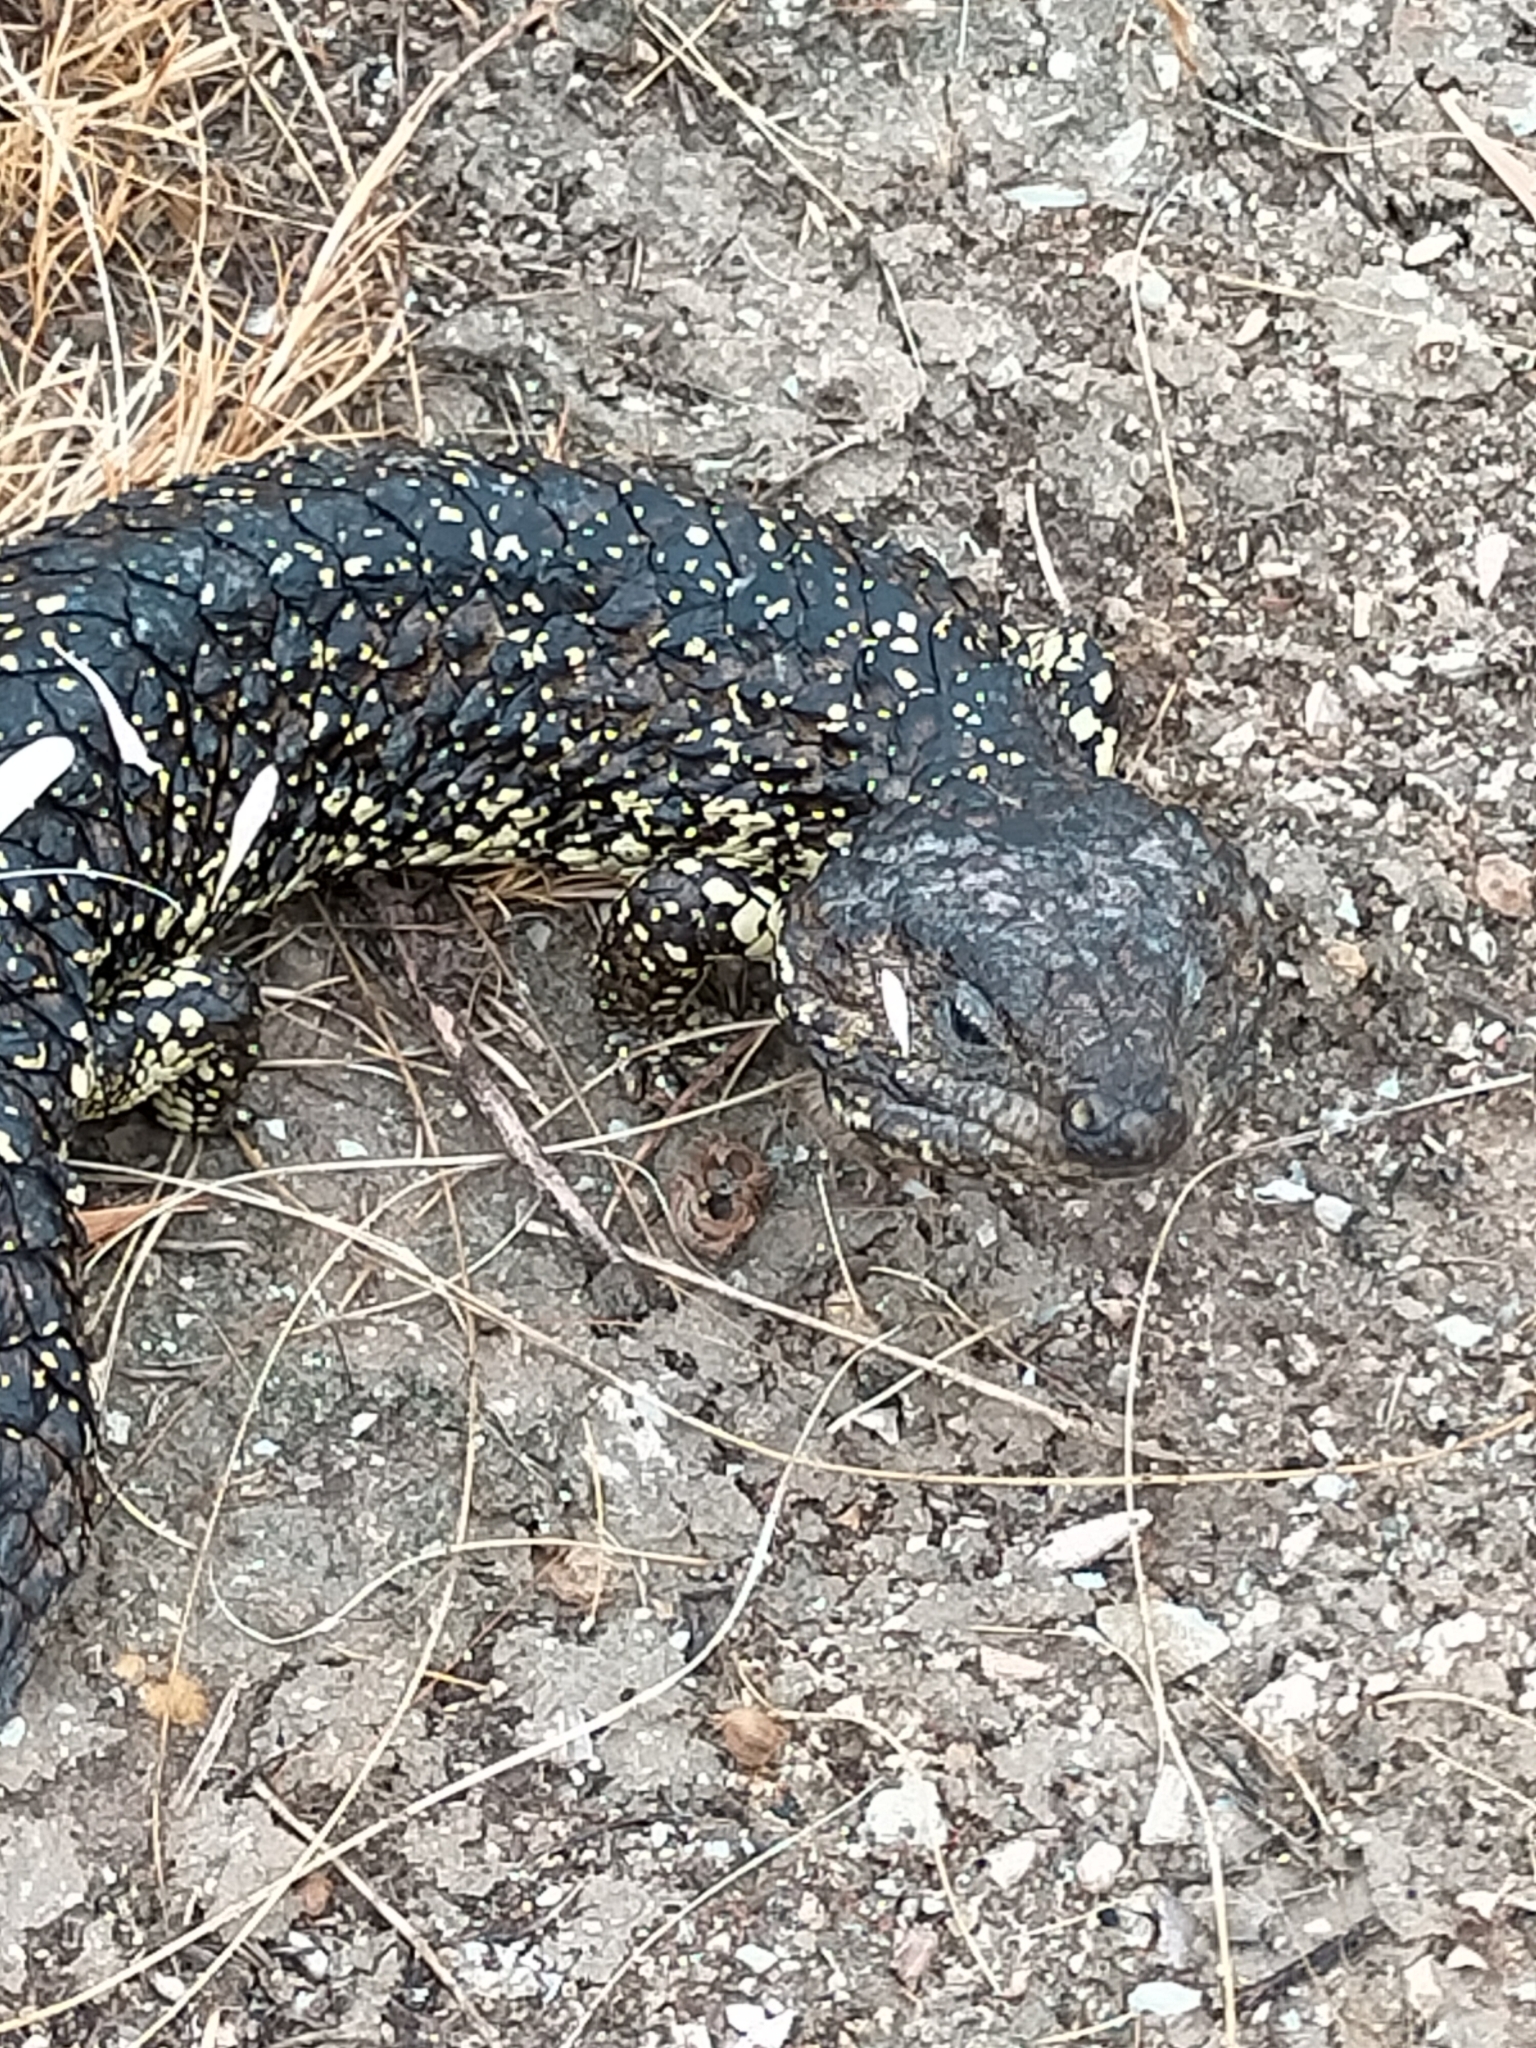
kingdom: Animalia
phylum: Chordata
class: Squamata
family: Scincidae
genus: Tiliqua
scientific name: Tiliqua rugosa
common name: Pinecone lizard
